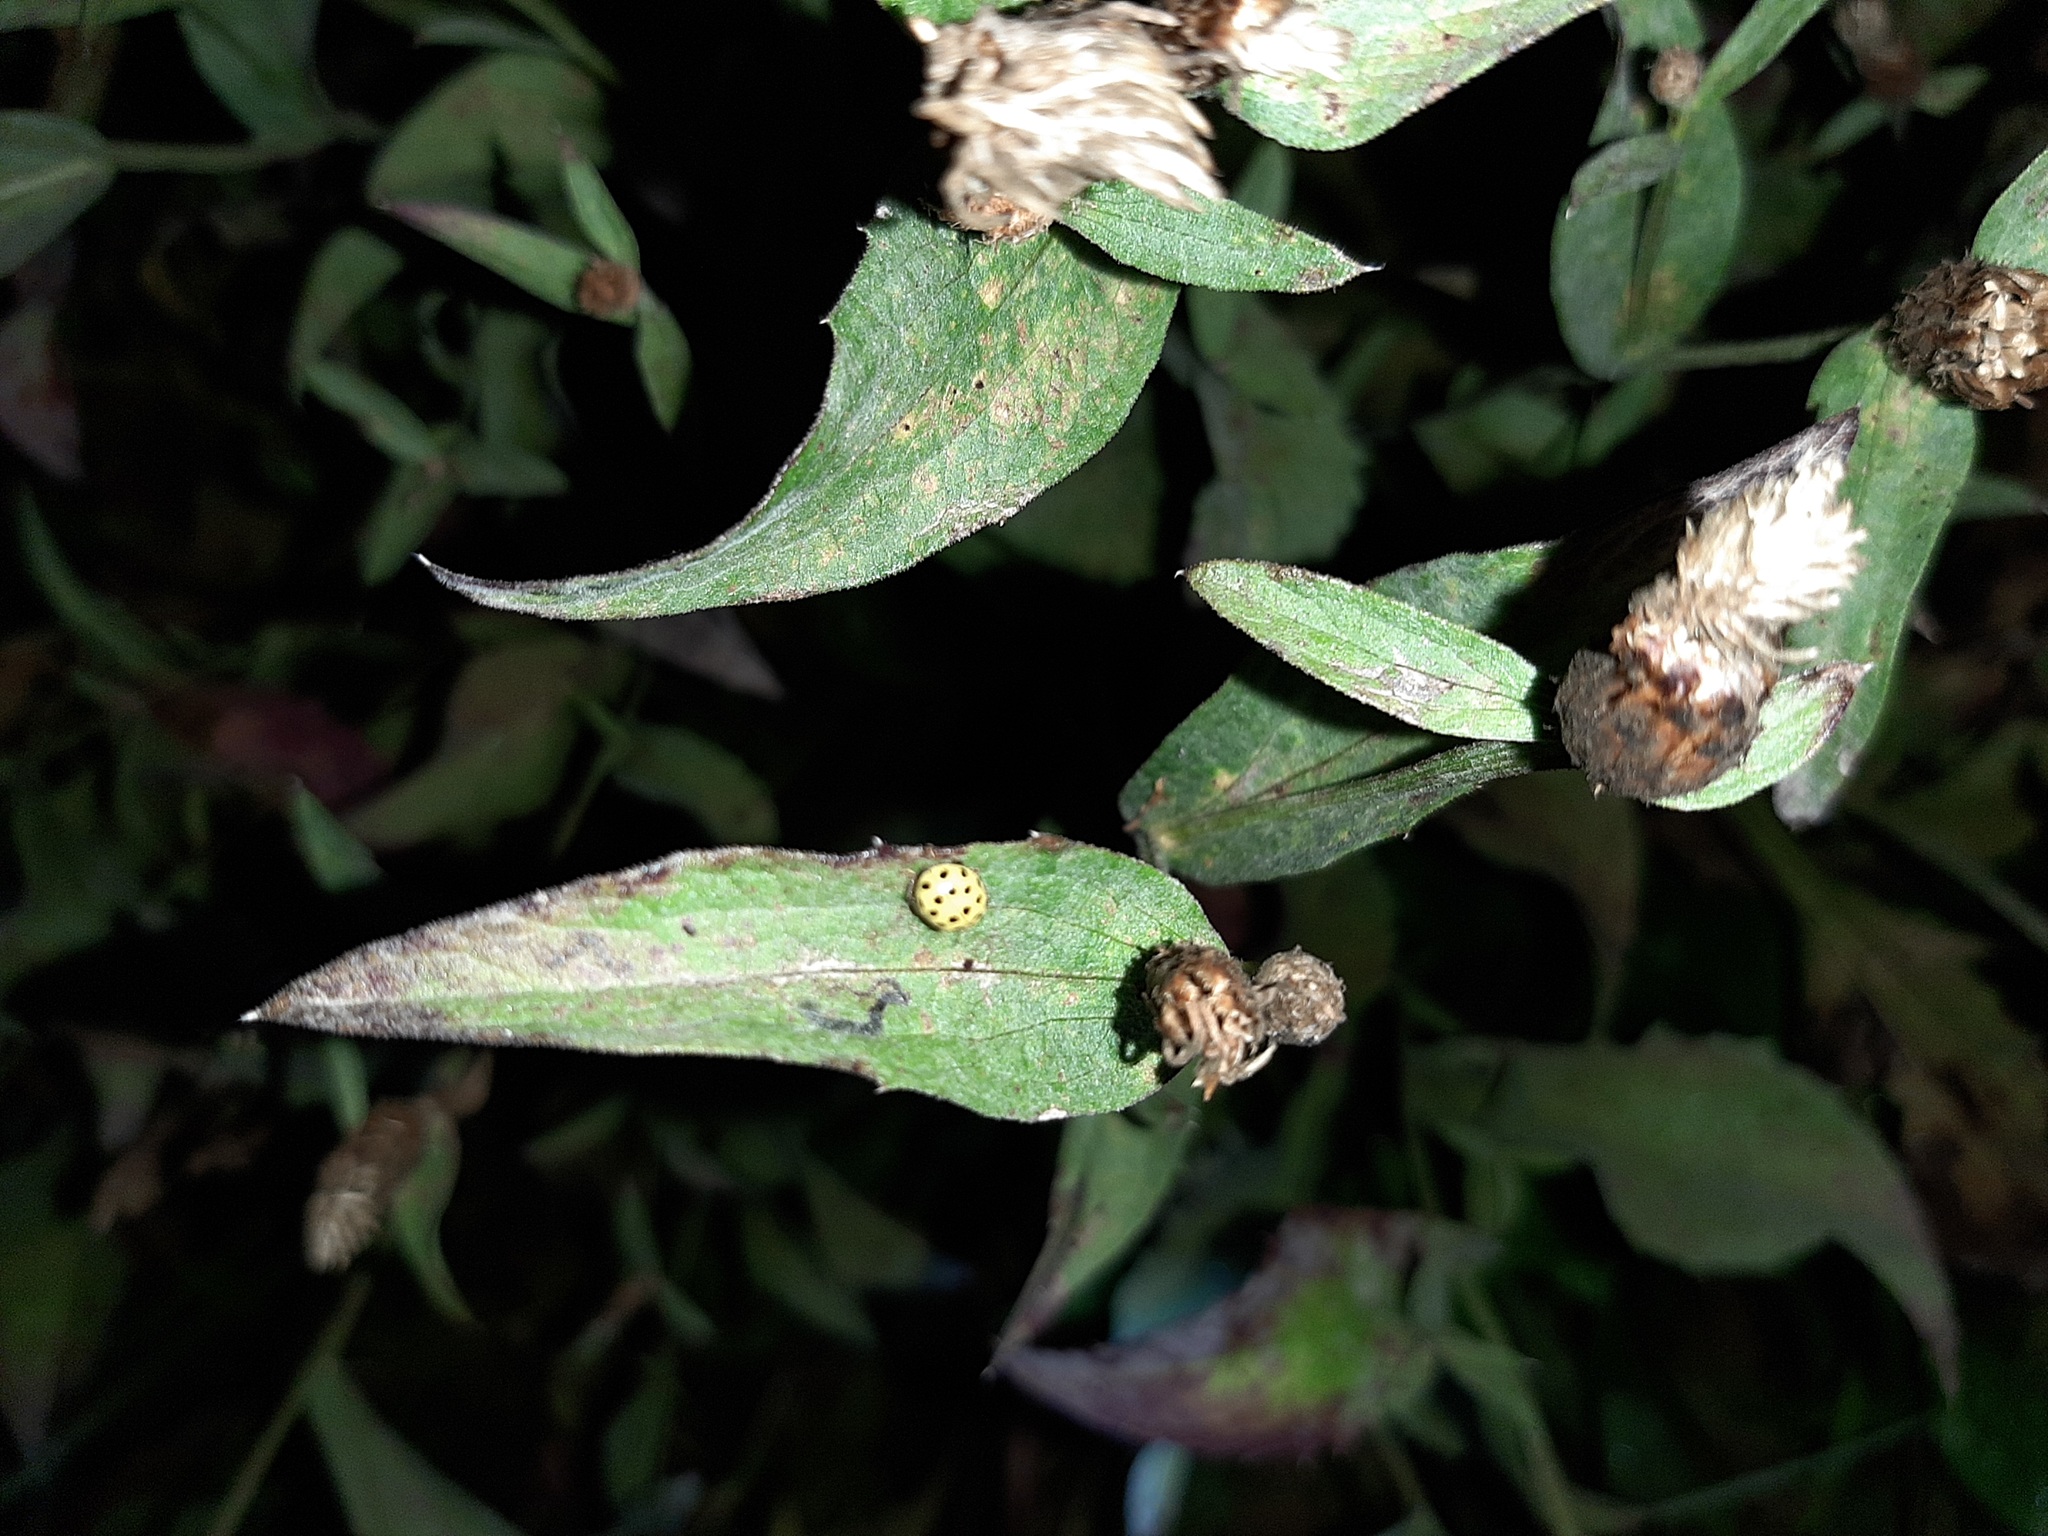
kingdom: Animalia
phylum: Arthropoda
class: Insecta
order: Coleoptera
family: Coccinellidae
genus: Psyllobora
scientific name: Psyllobora vigintiduopunctata
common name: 22-spot ladybird
